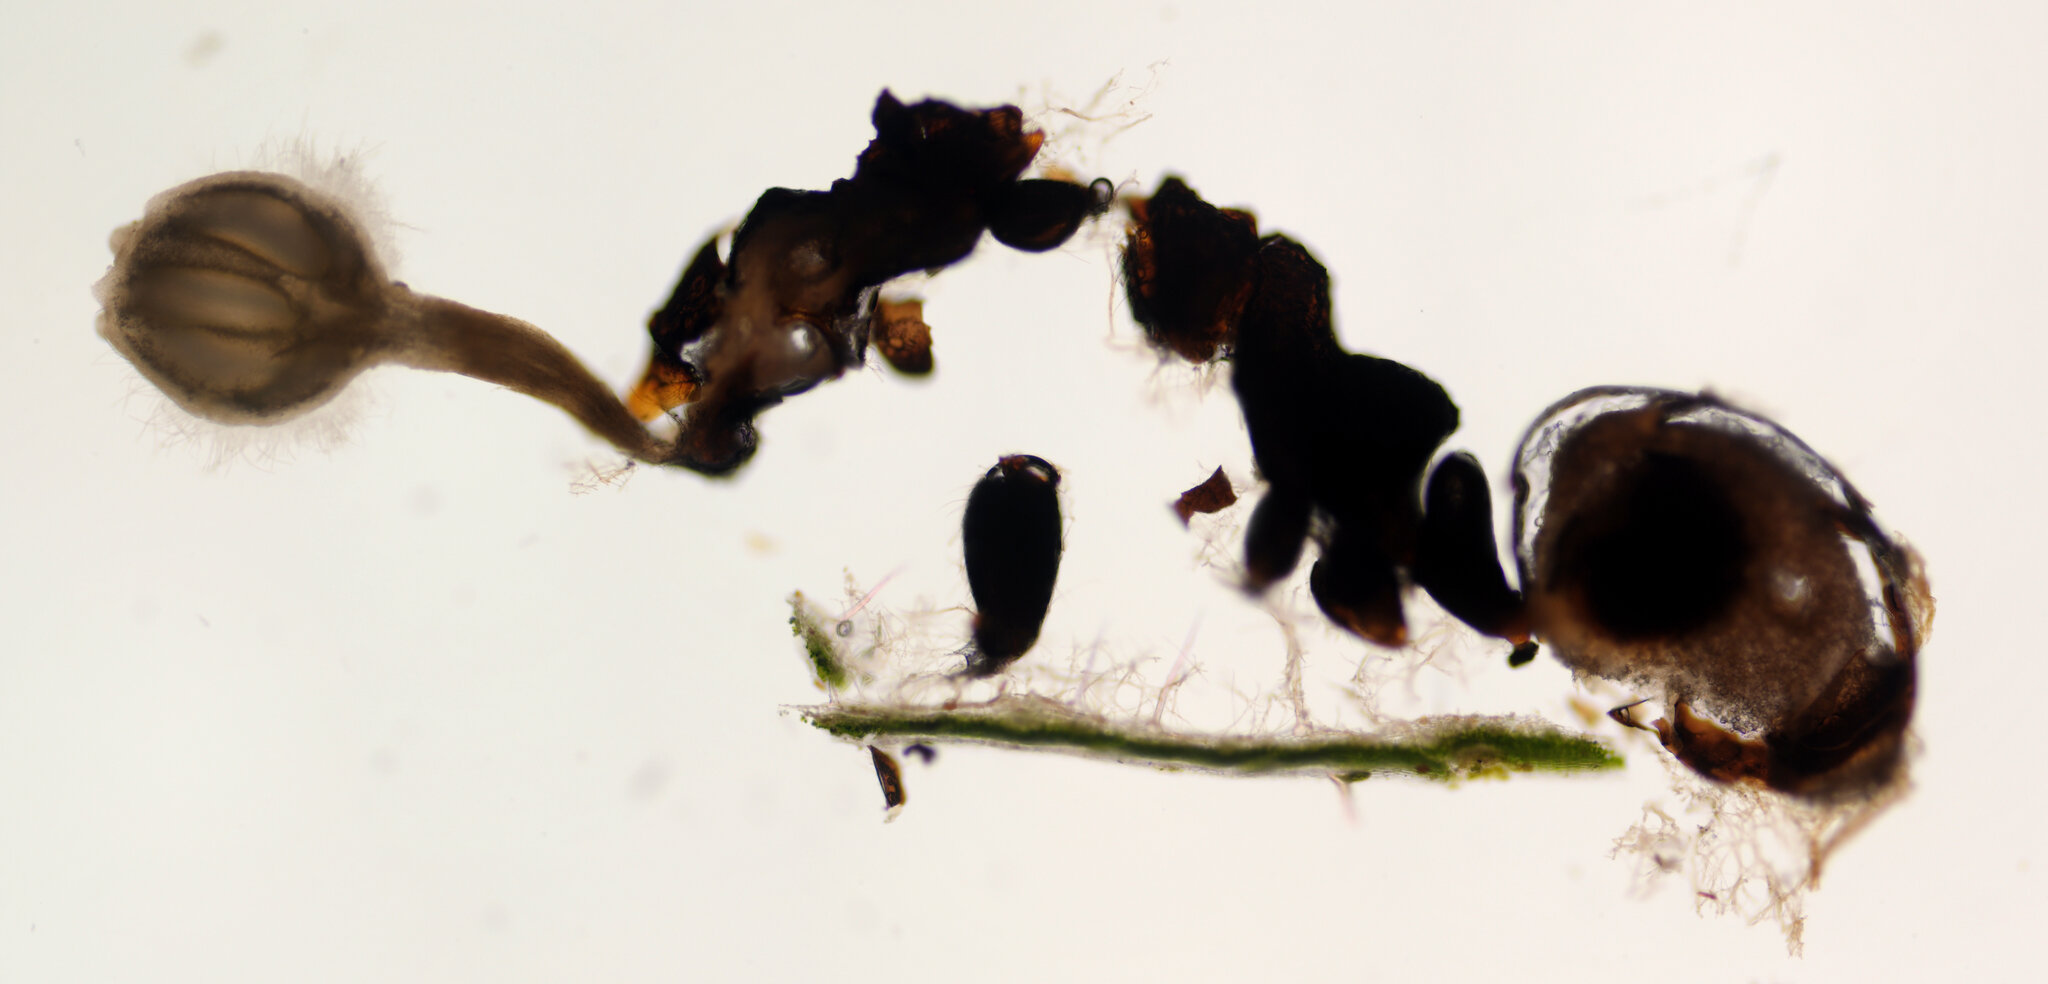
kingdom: Fungi
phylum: Ascomycota
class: Sordariomycetes
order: Hypocreales
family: Ophiocordycipitaceae
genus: Ophiocordyceps
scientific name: Ophiocordyceps pseudolloydii
